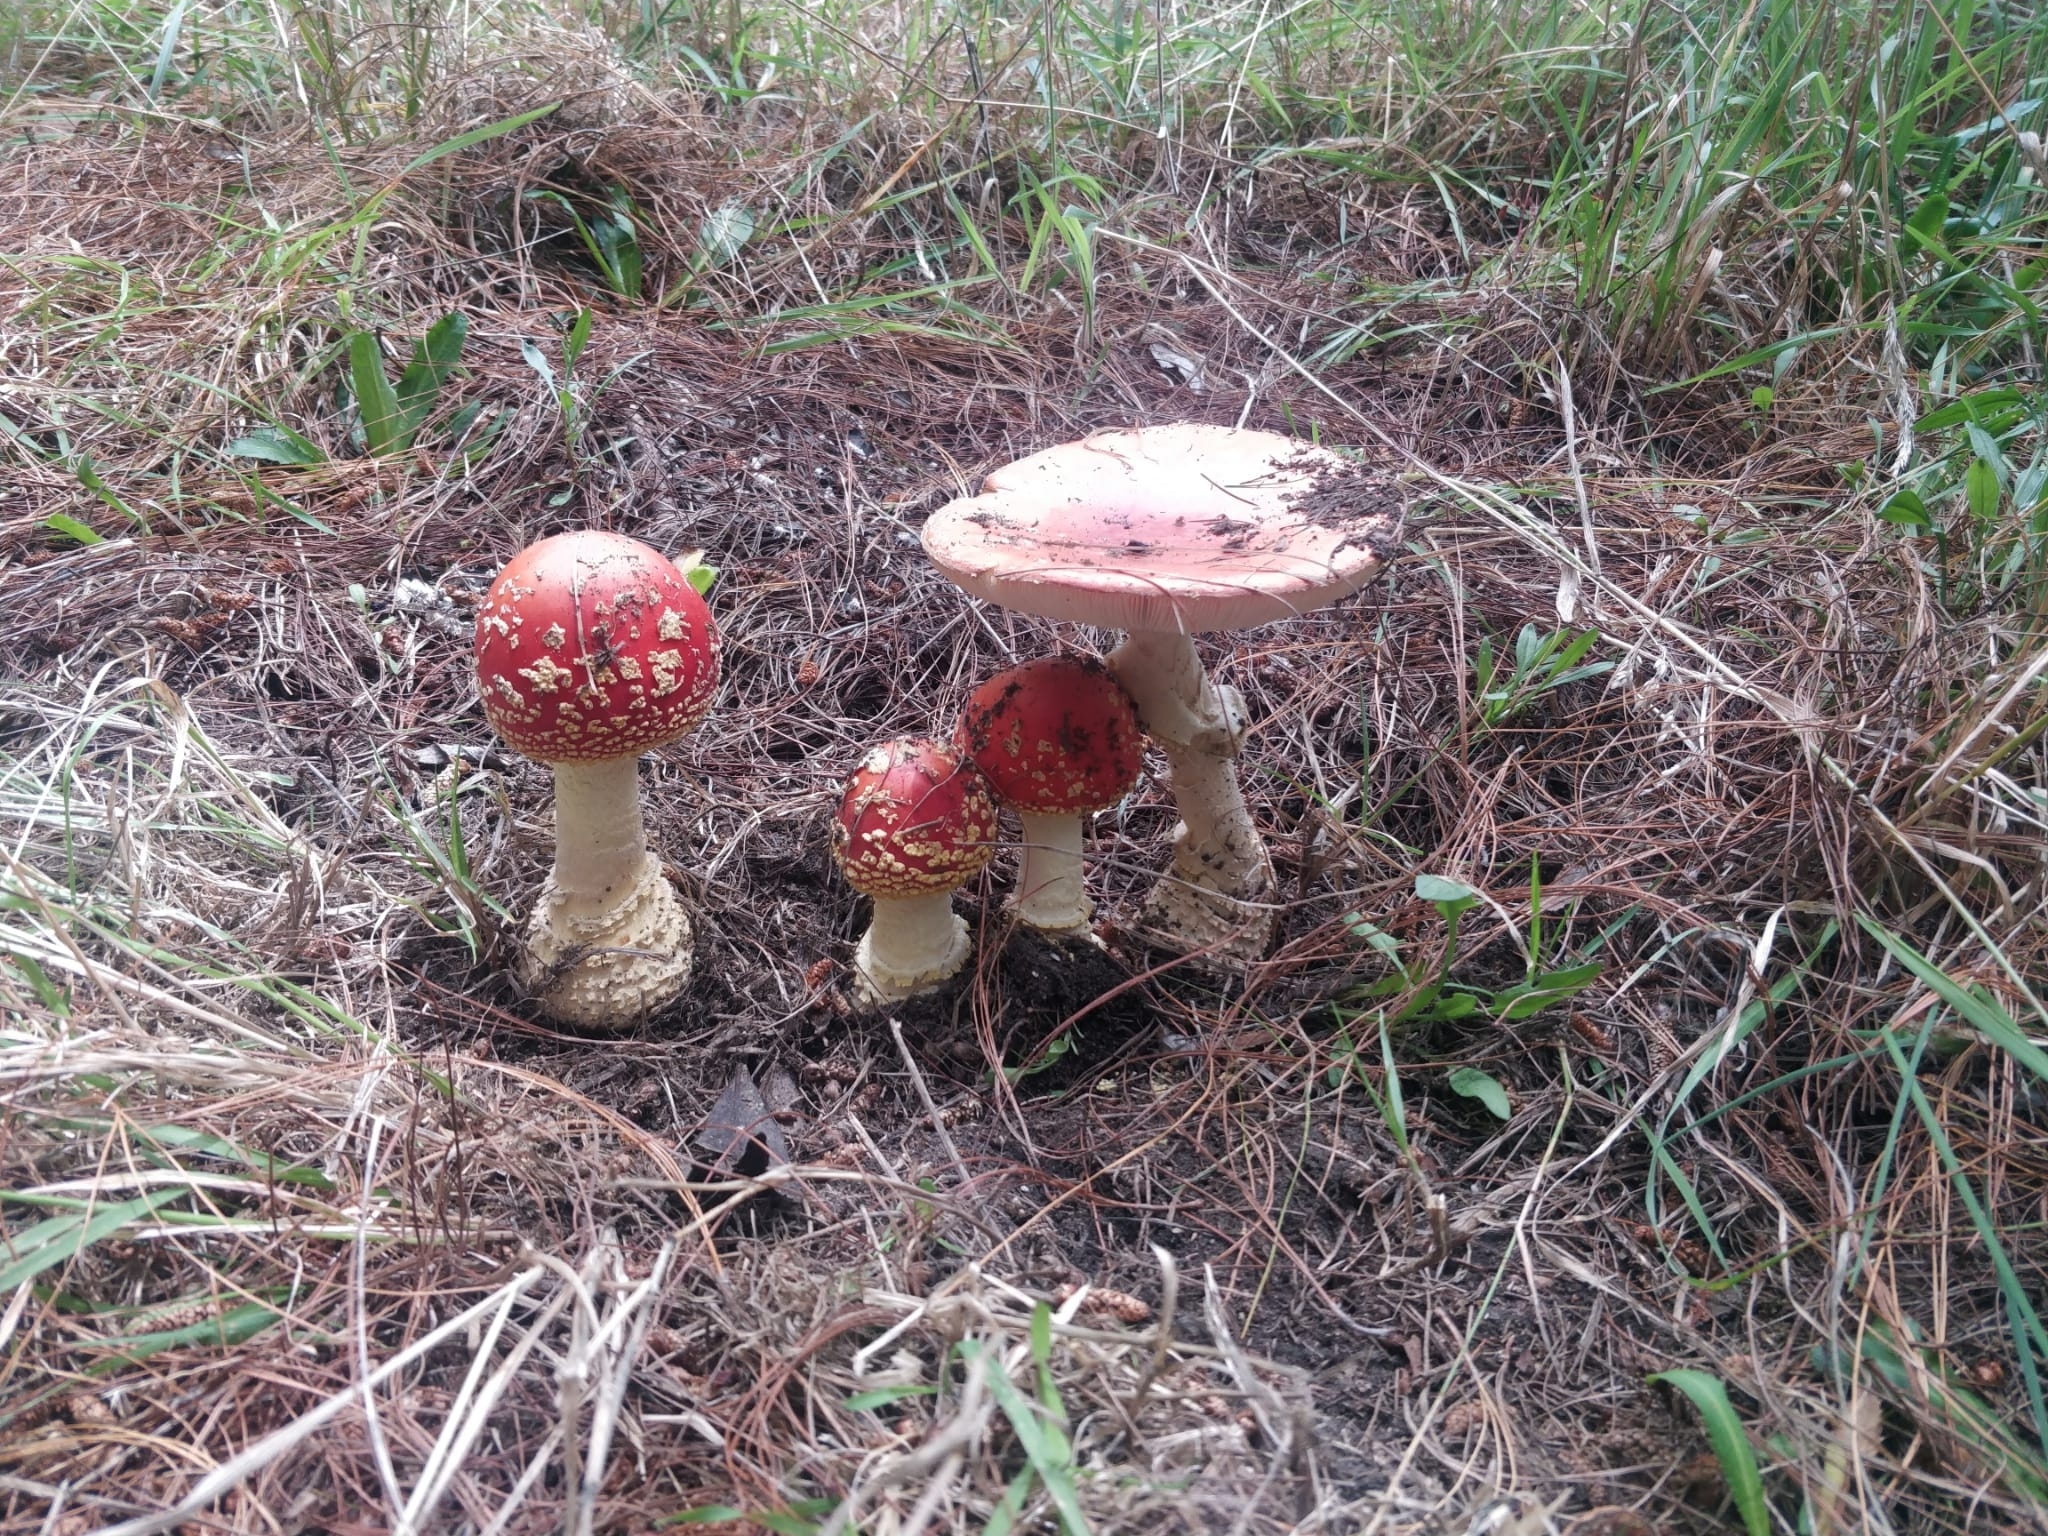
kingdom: Fungi
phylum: Basidiomycota
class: Agaricomycetes
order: Agaricales
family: Amanitaceae
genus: Amanita
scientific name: Amanita muscaria
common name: Fly agaric
